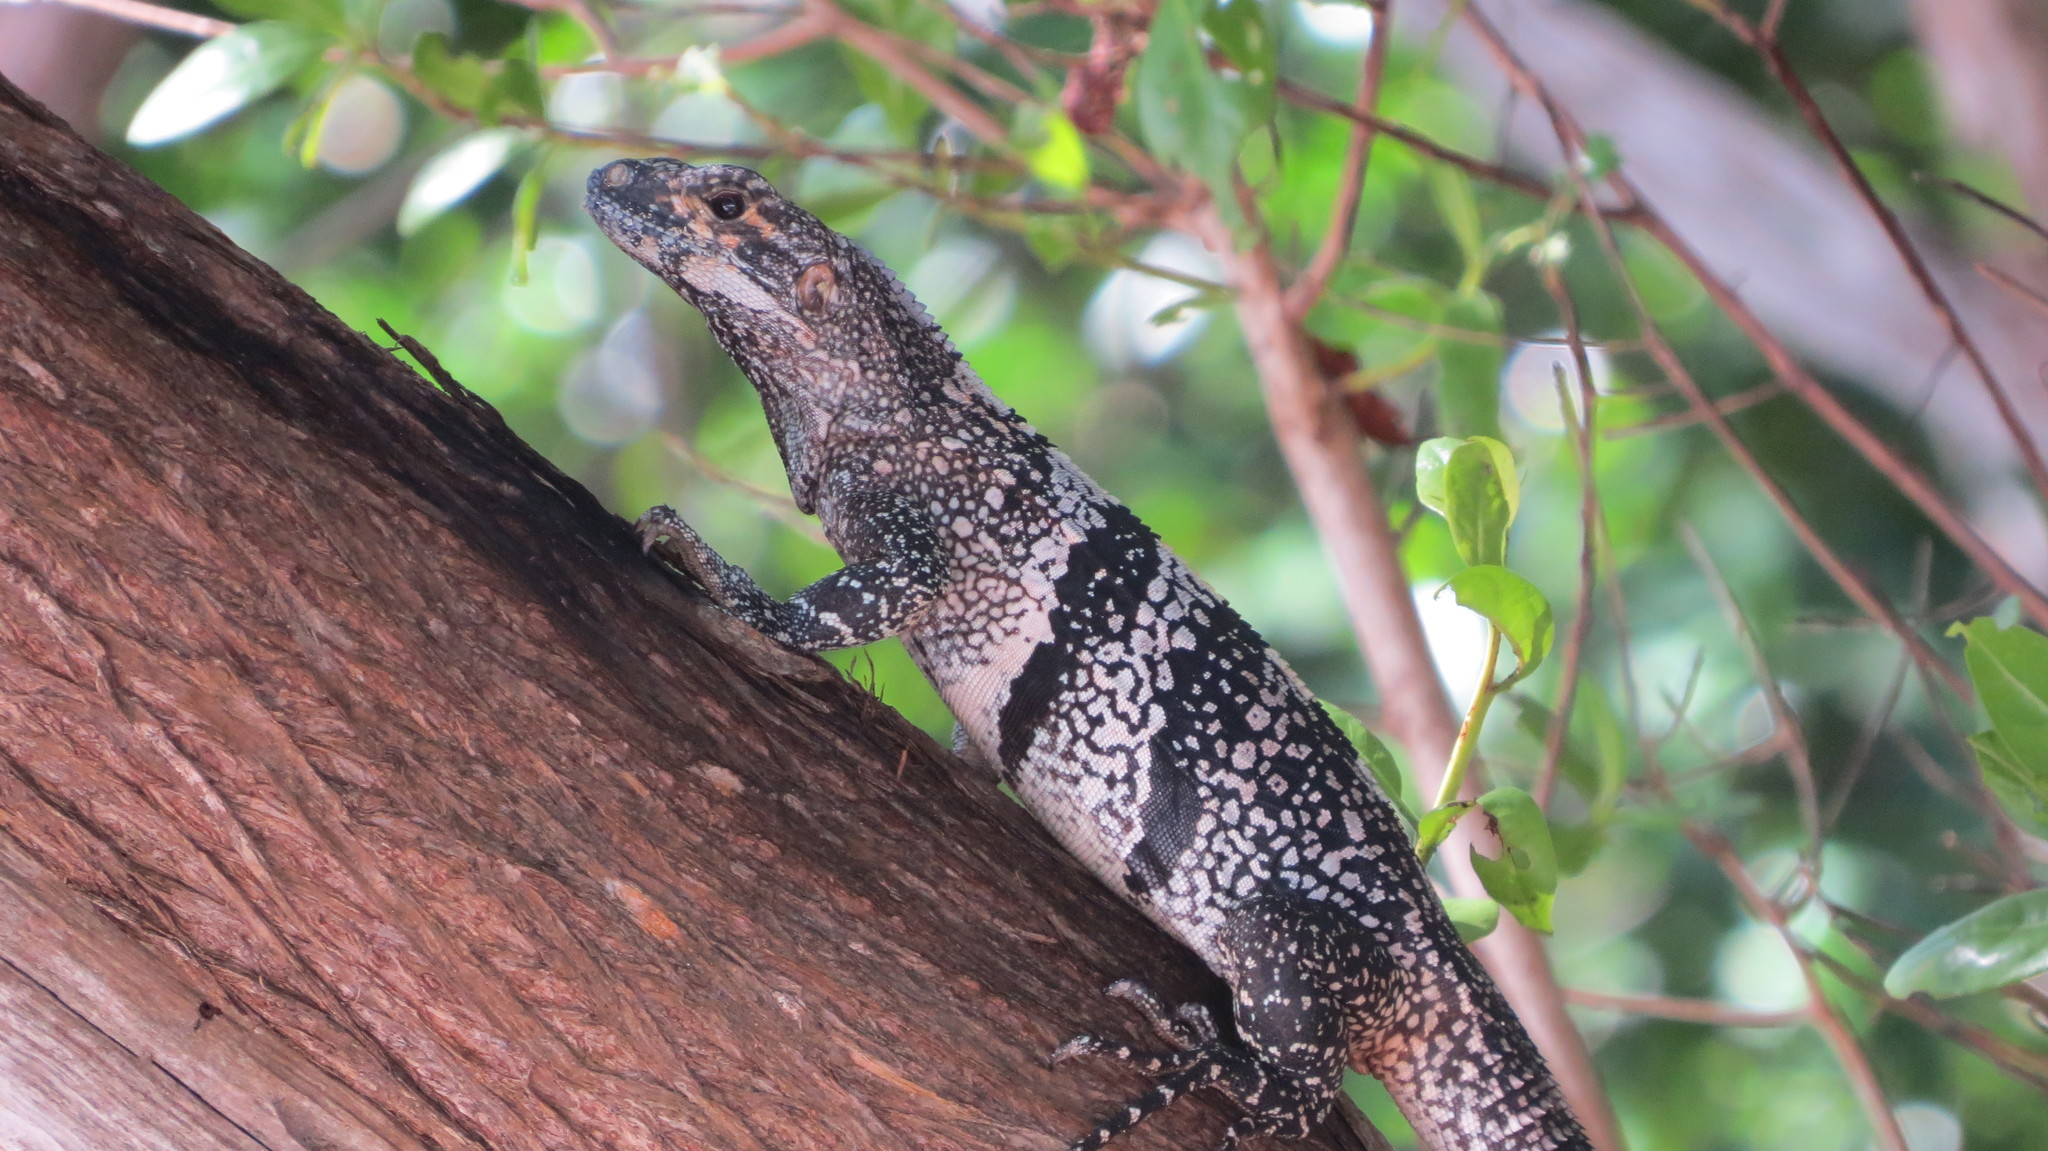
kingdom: Animalia
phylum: Chordata
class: Squamata
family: Iguanidae
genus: Ctenosaura
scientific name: Ctenosaura similis
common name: Black spiny-tailed iguana
